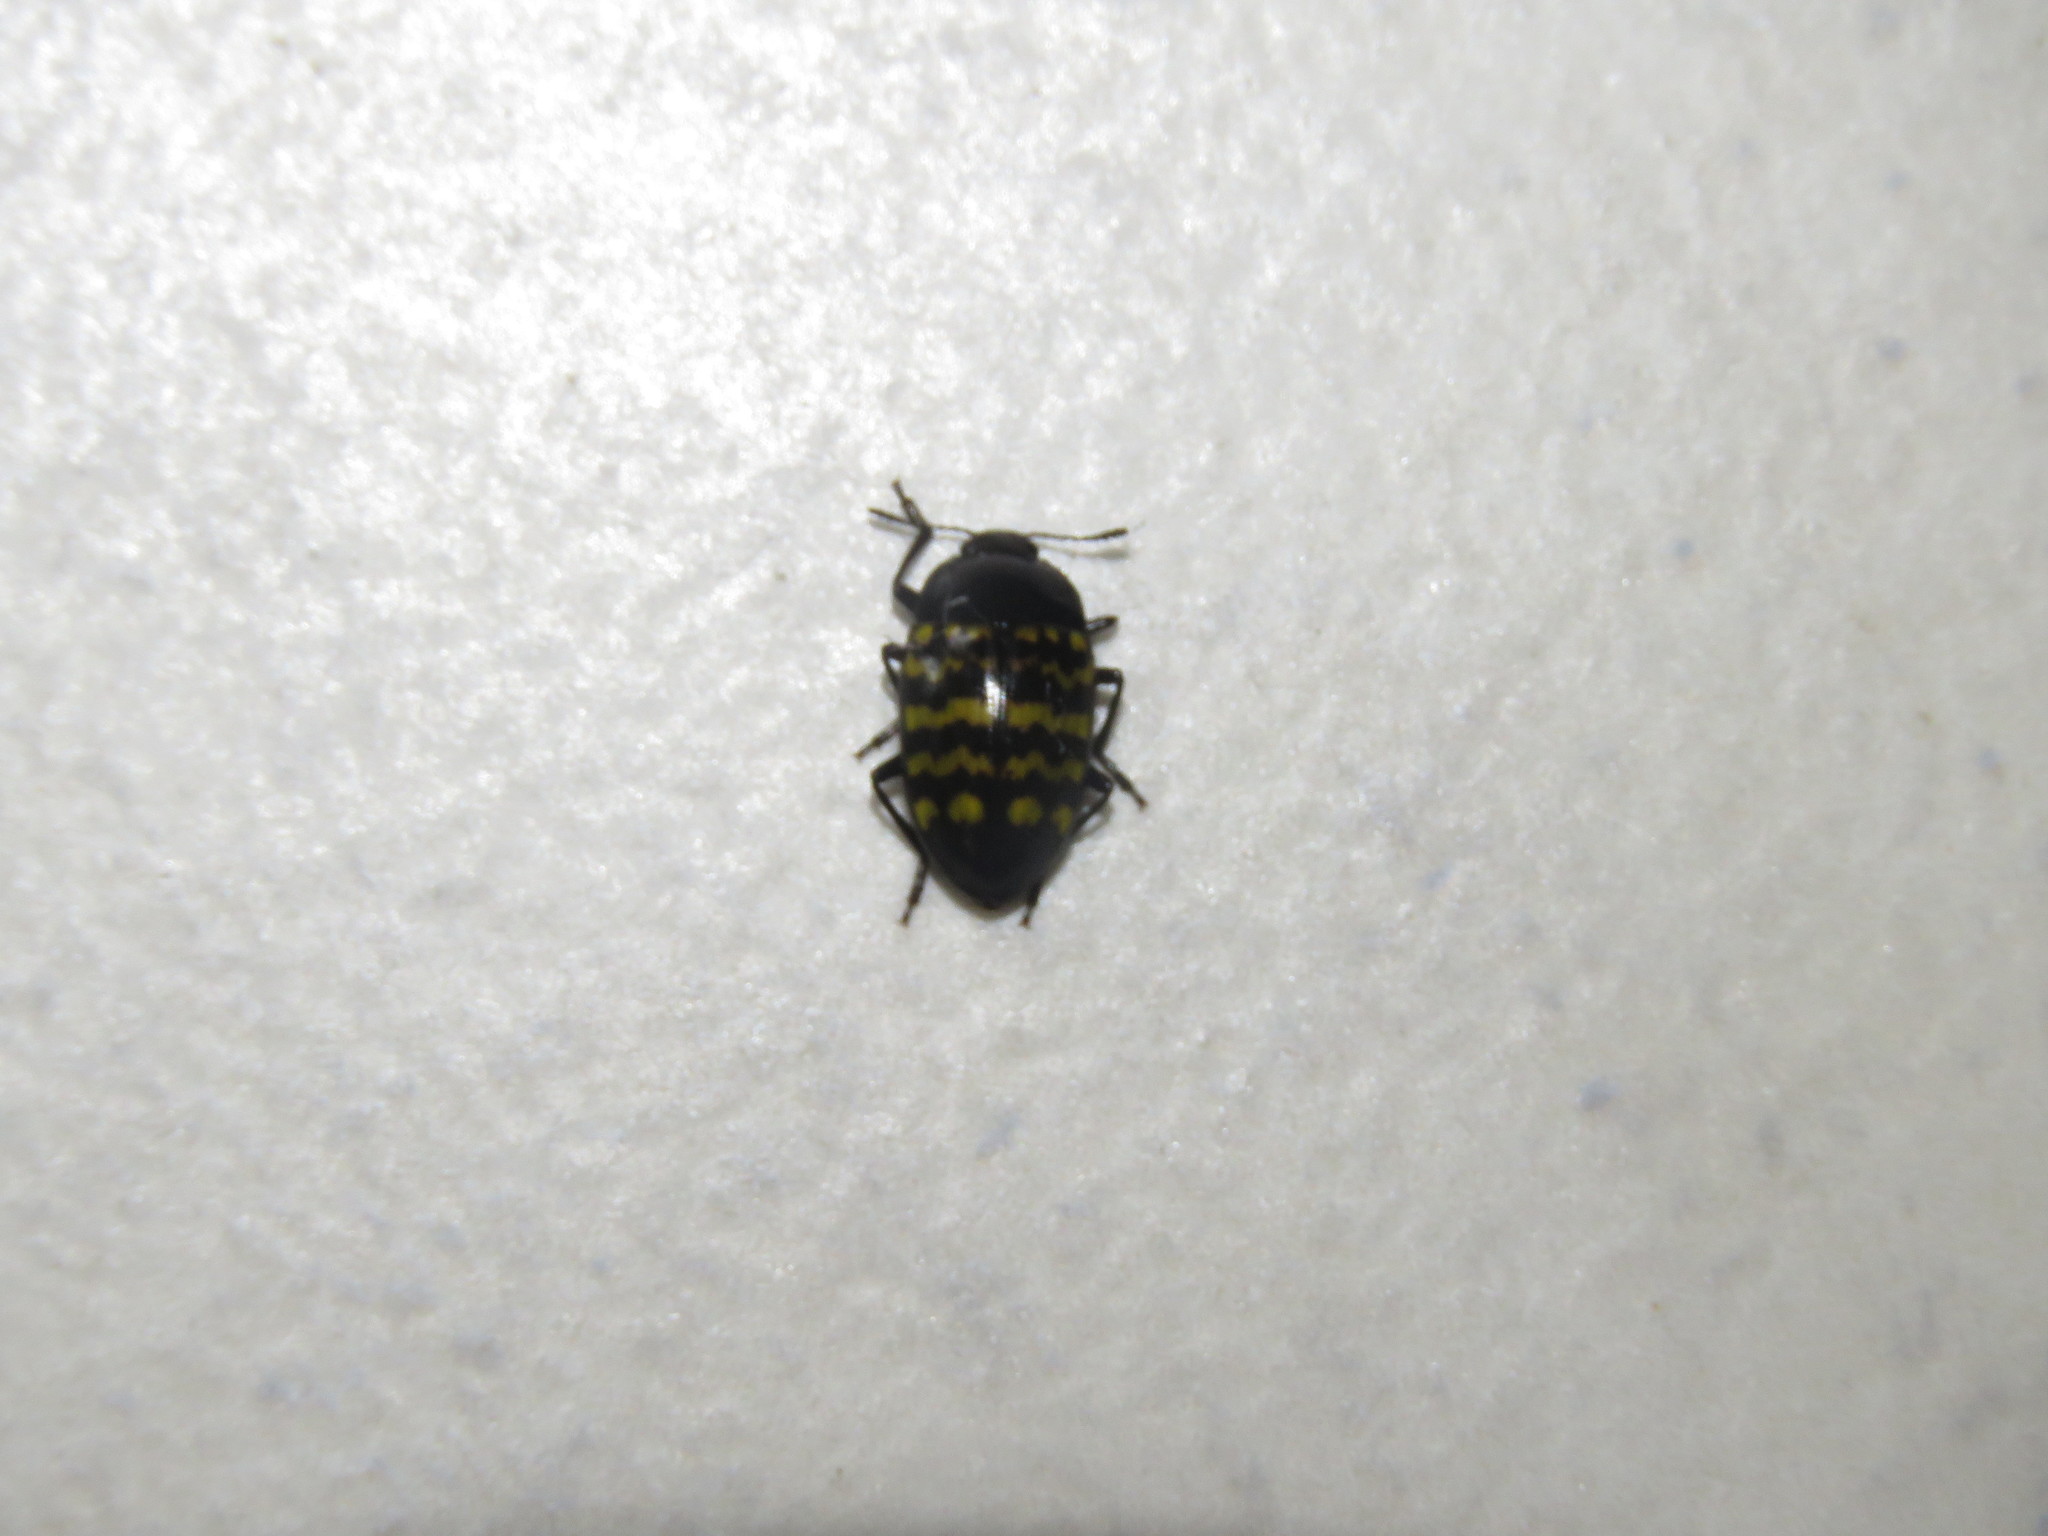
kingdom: Animalia
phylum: Arthropoda
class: Insecta
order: Coleoptera
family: Erotylidae
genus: Iphiclus
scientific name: Iphiclus
